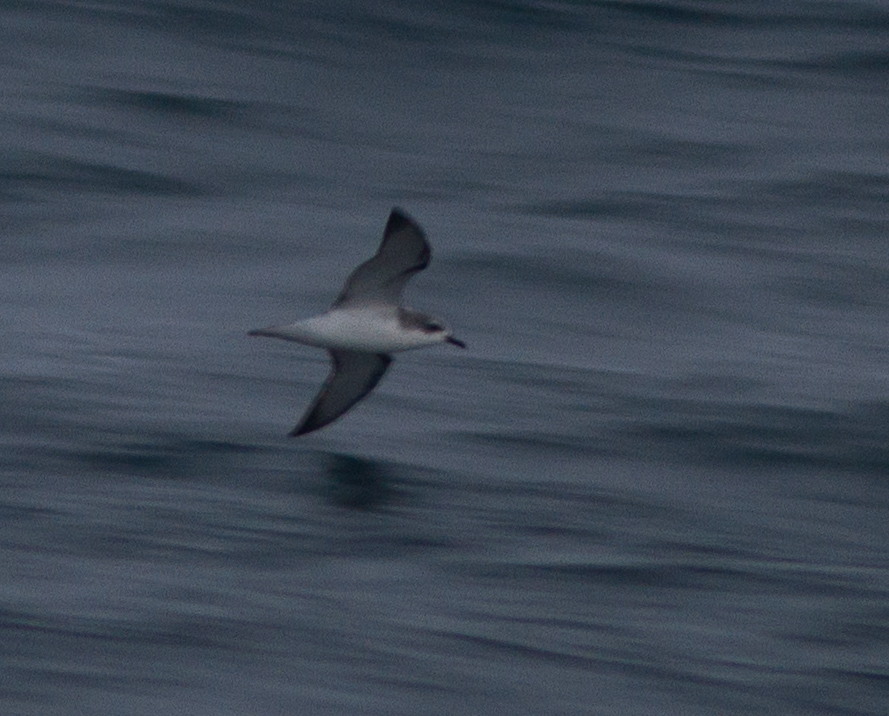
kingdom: Animalia
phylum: Chordata
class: Aves
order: Procellariiformes
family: Procellariidae
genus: Pterodroma
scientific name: Pterodroma cookii
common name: Cook's petrel
